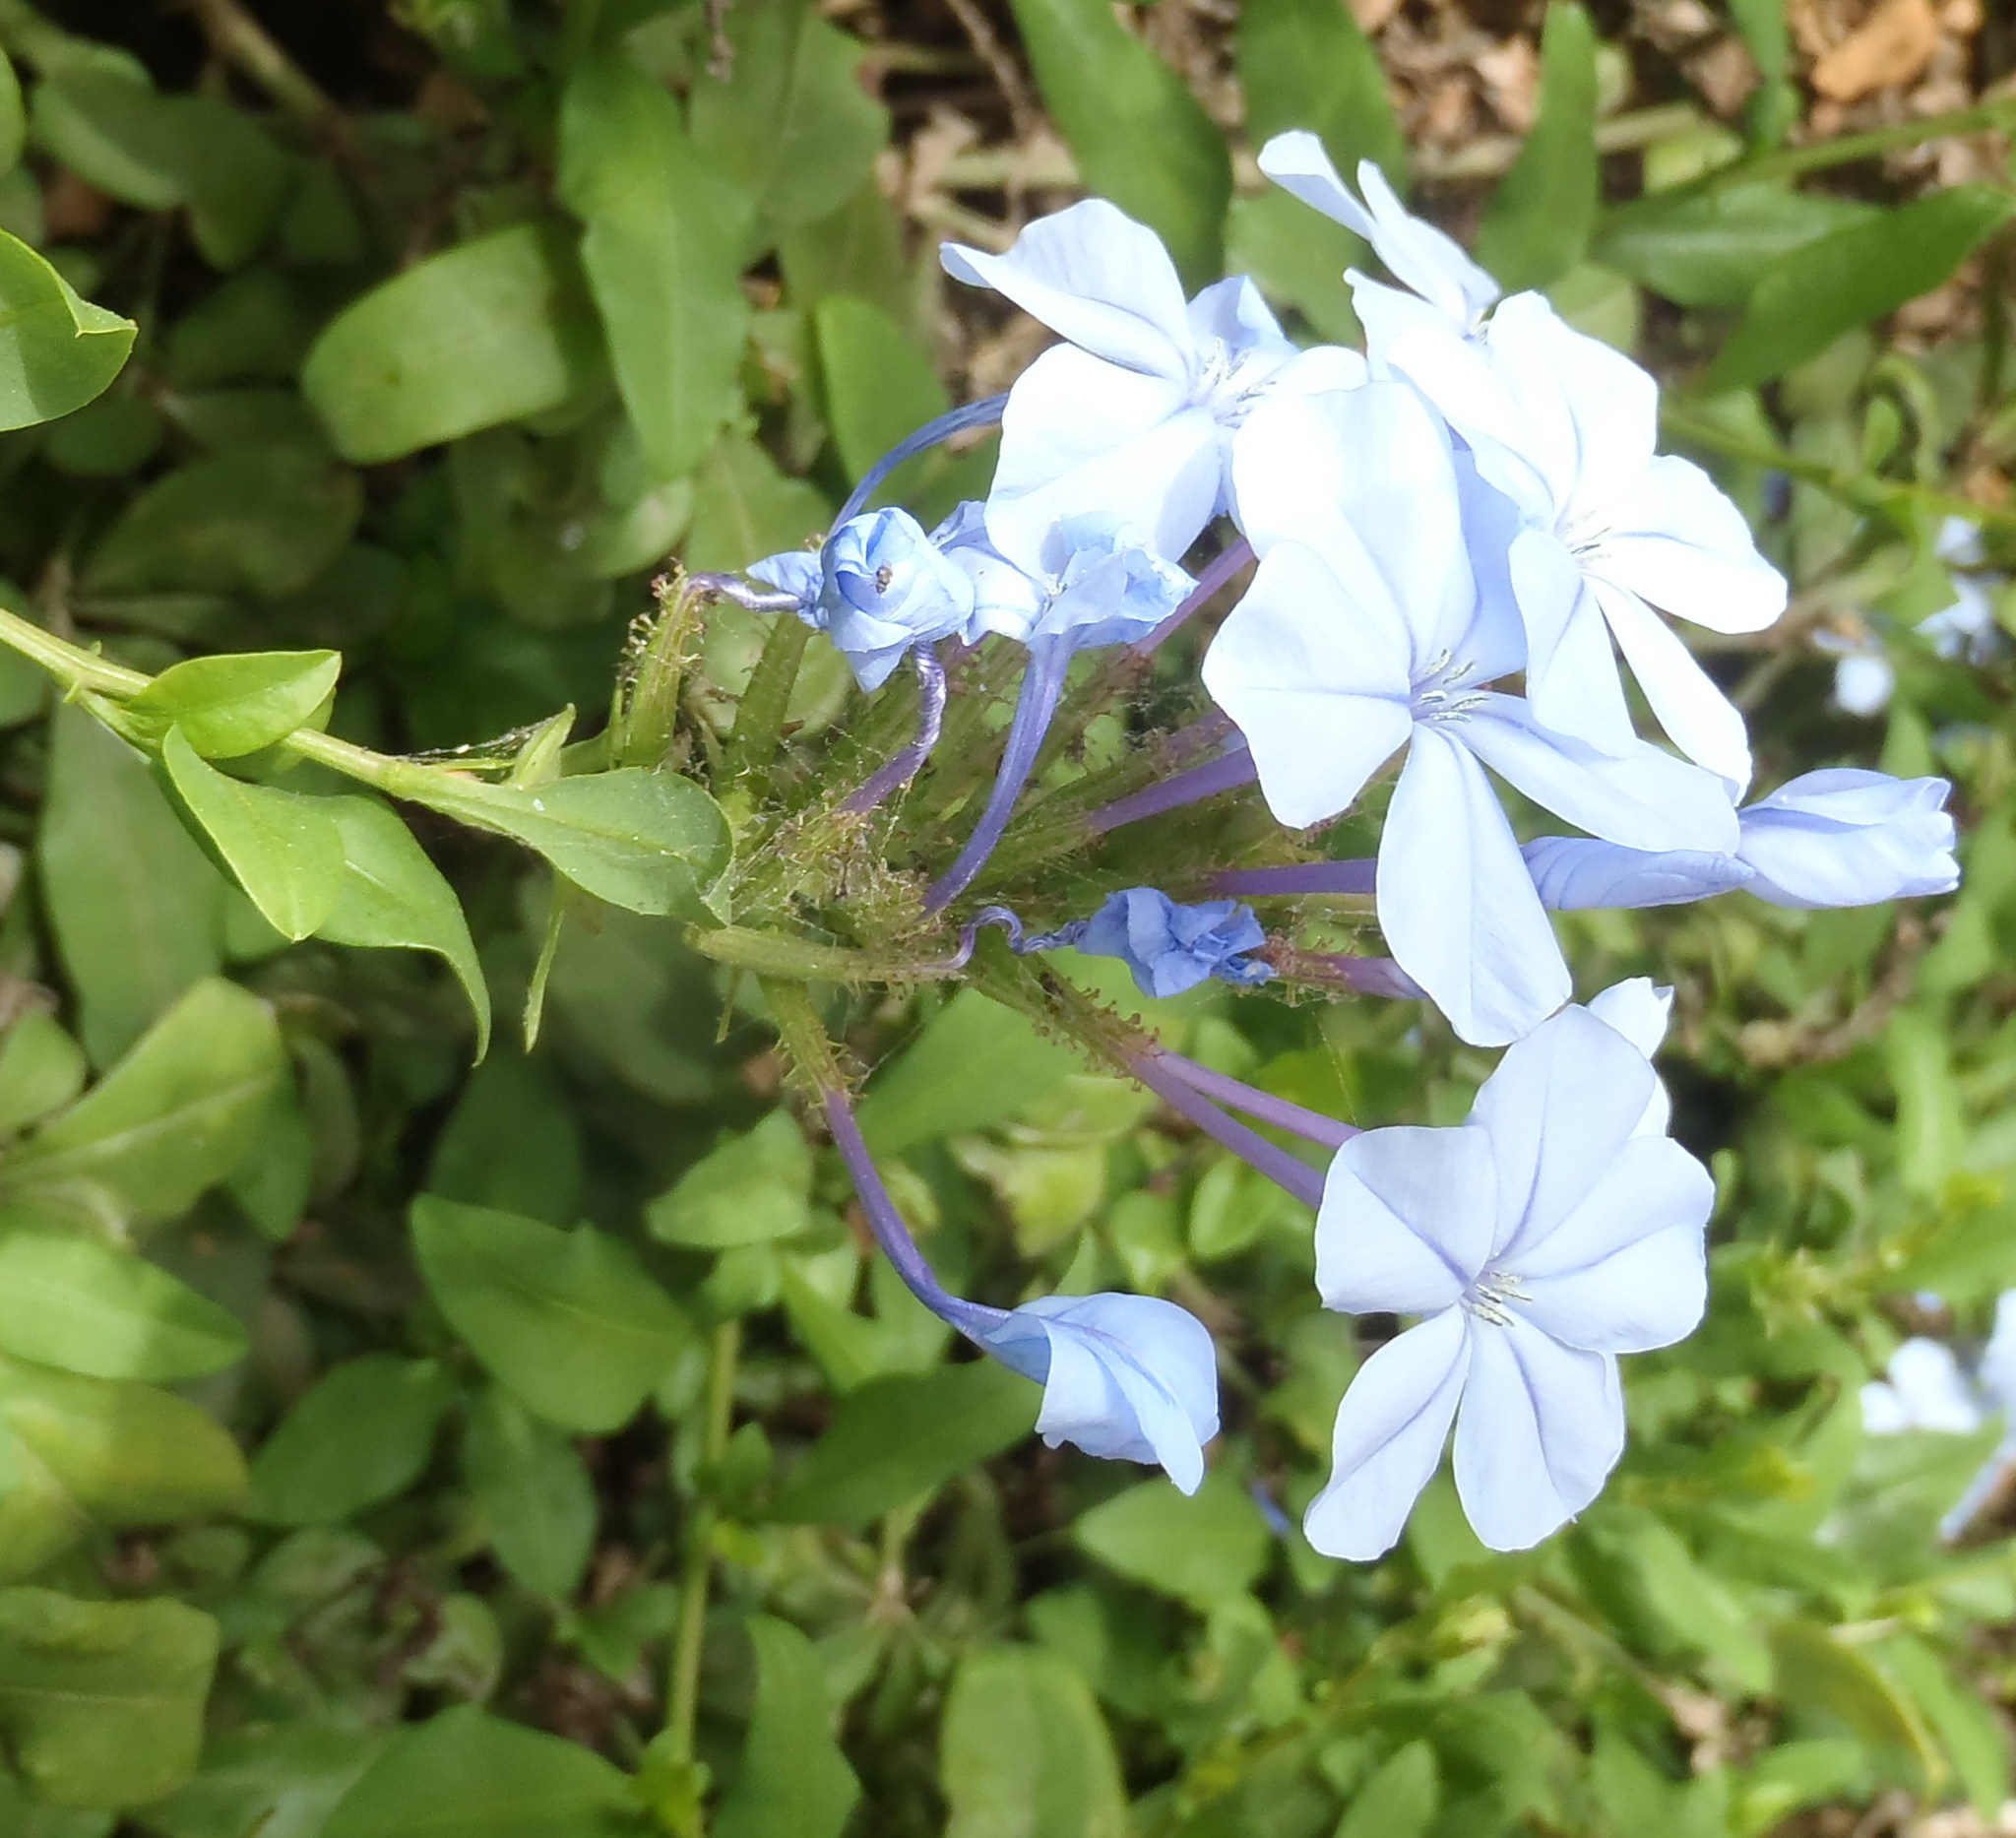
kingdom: Plantae
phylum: Tracheophyta
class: Magnoliopsida
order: Caryophyllales
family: Plumbaginaceae
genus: Plumbago
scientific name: Plumbago auriculata
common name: Cape leadwort
